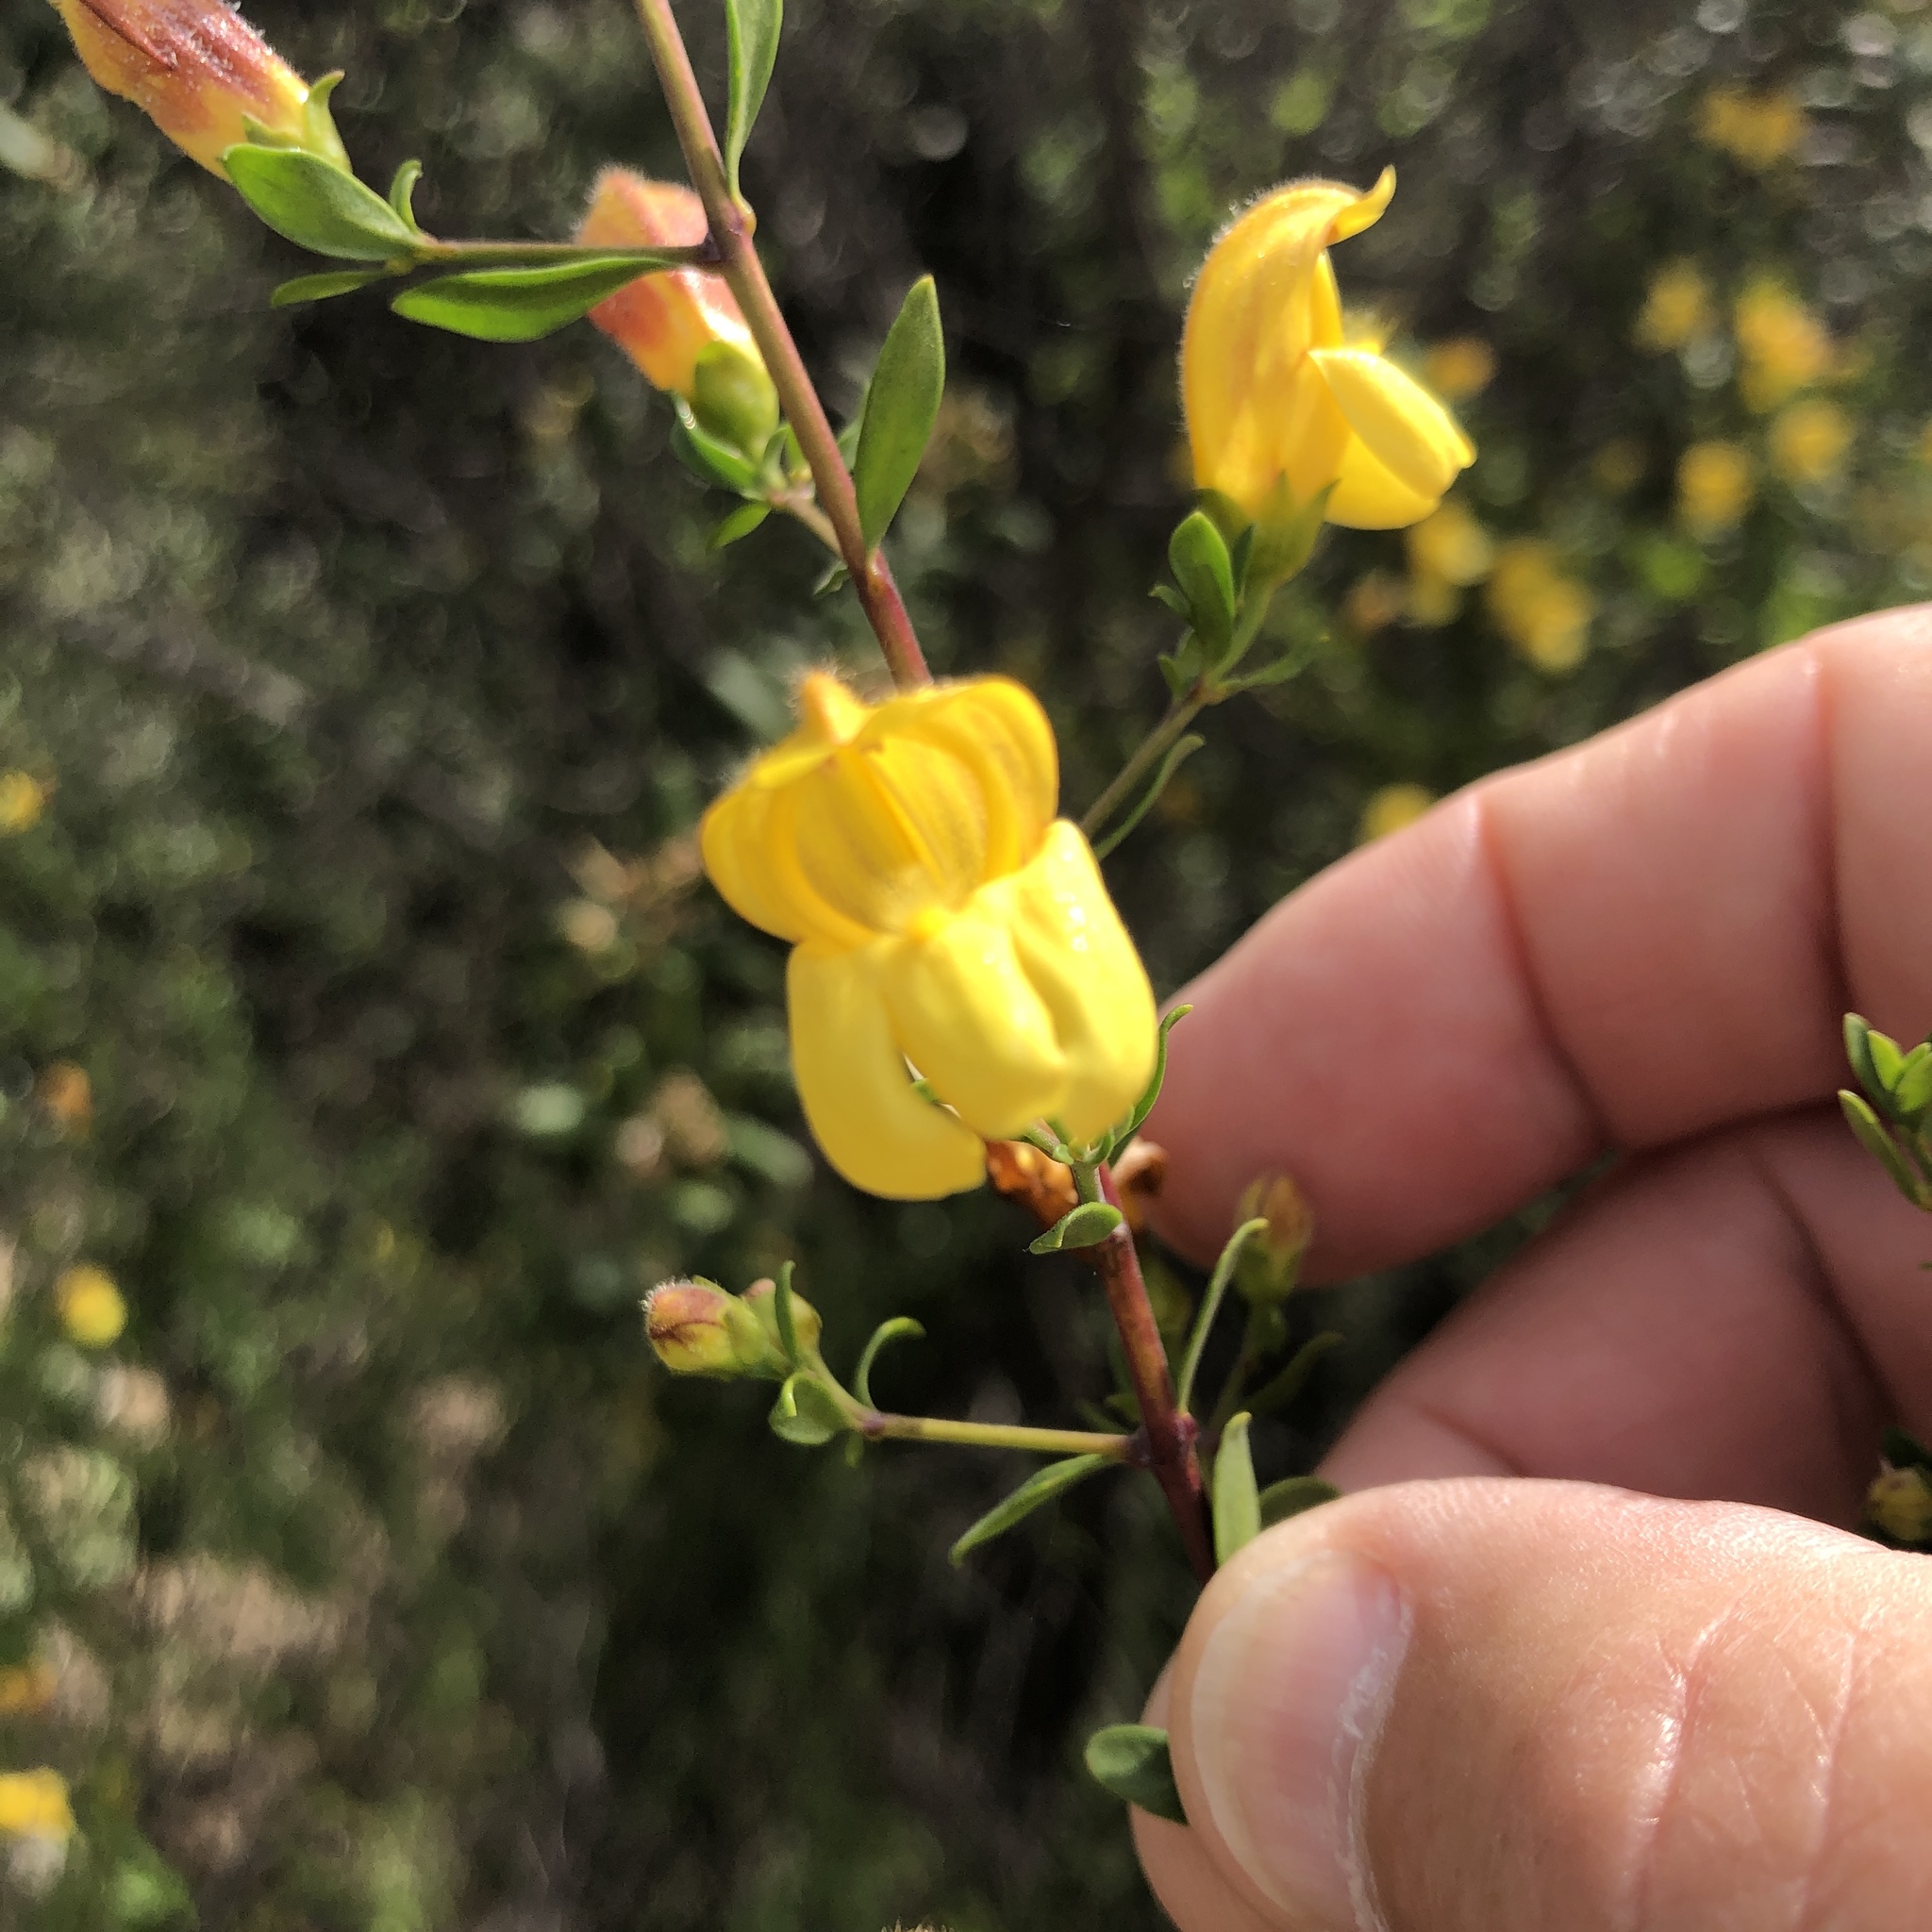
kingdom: Plantae
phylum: Tracheophyta
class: Magnoliopsida
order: Lamiales
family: Plantaginaceae
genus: Keckiella
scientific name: Keckiella antirrhinoides
